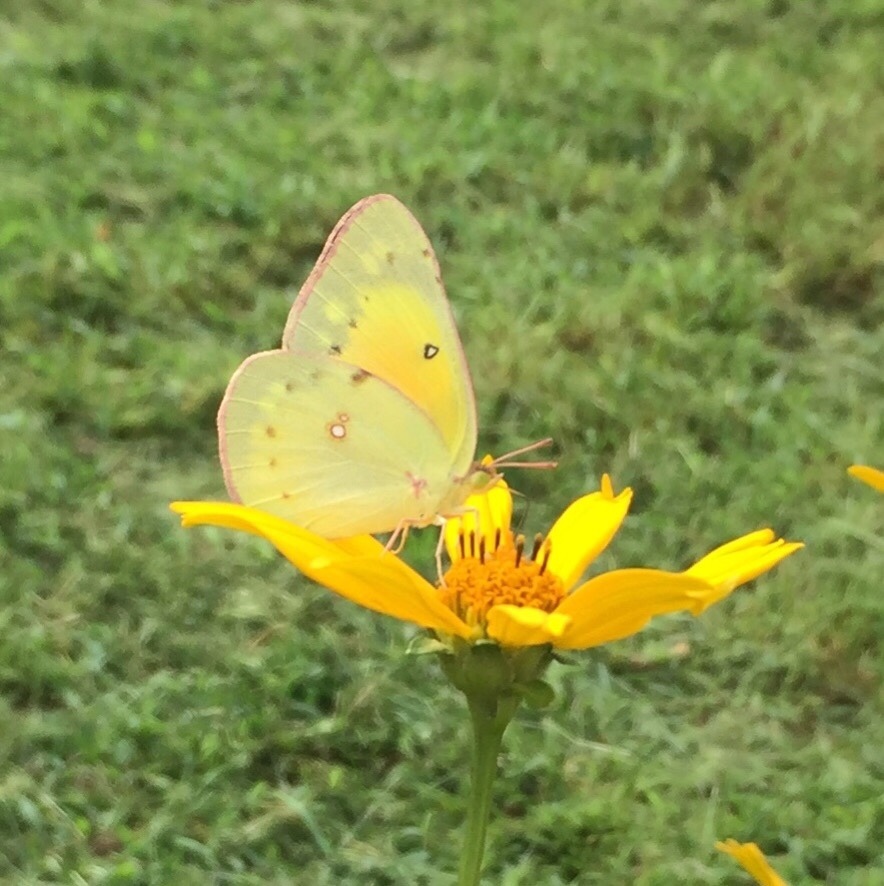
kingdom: Animalia
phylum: Arthropoda
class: Insecta
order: Lepidoptera
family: Pieridae
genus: Colias
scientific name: Colias eurytheme
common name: Alfalfa butterfly
